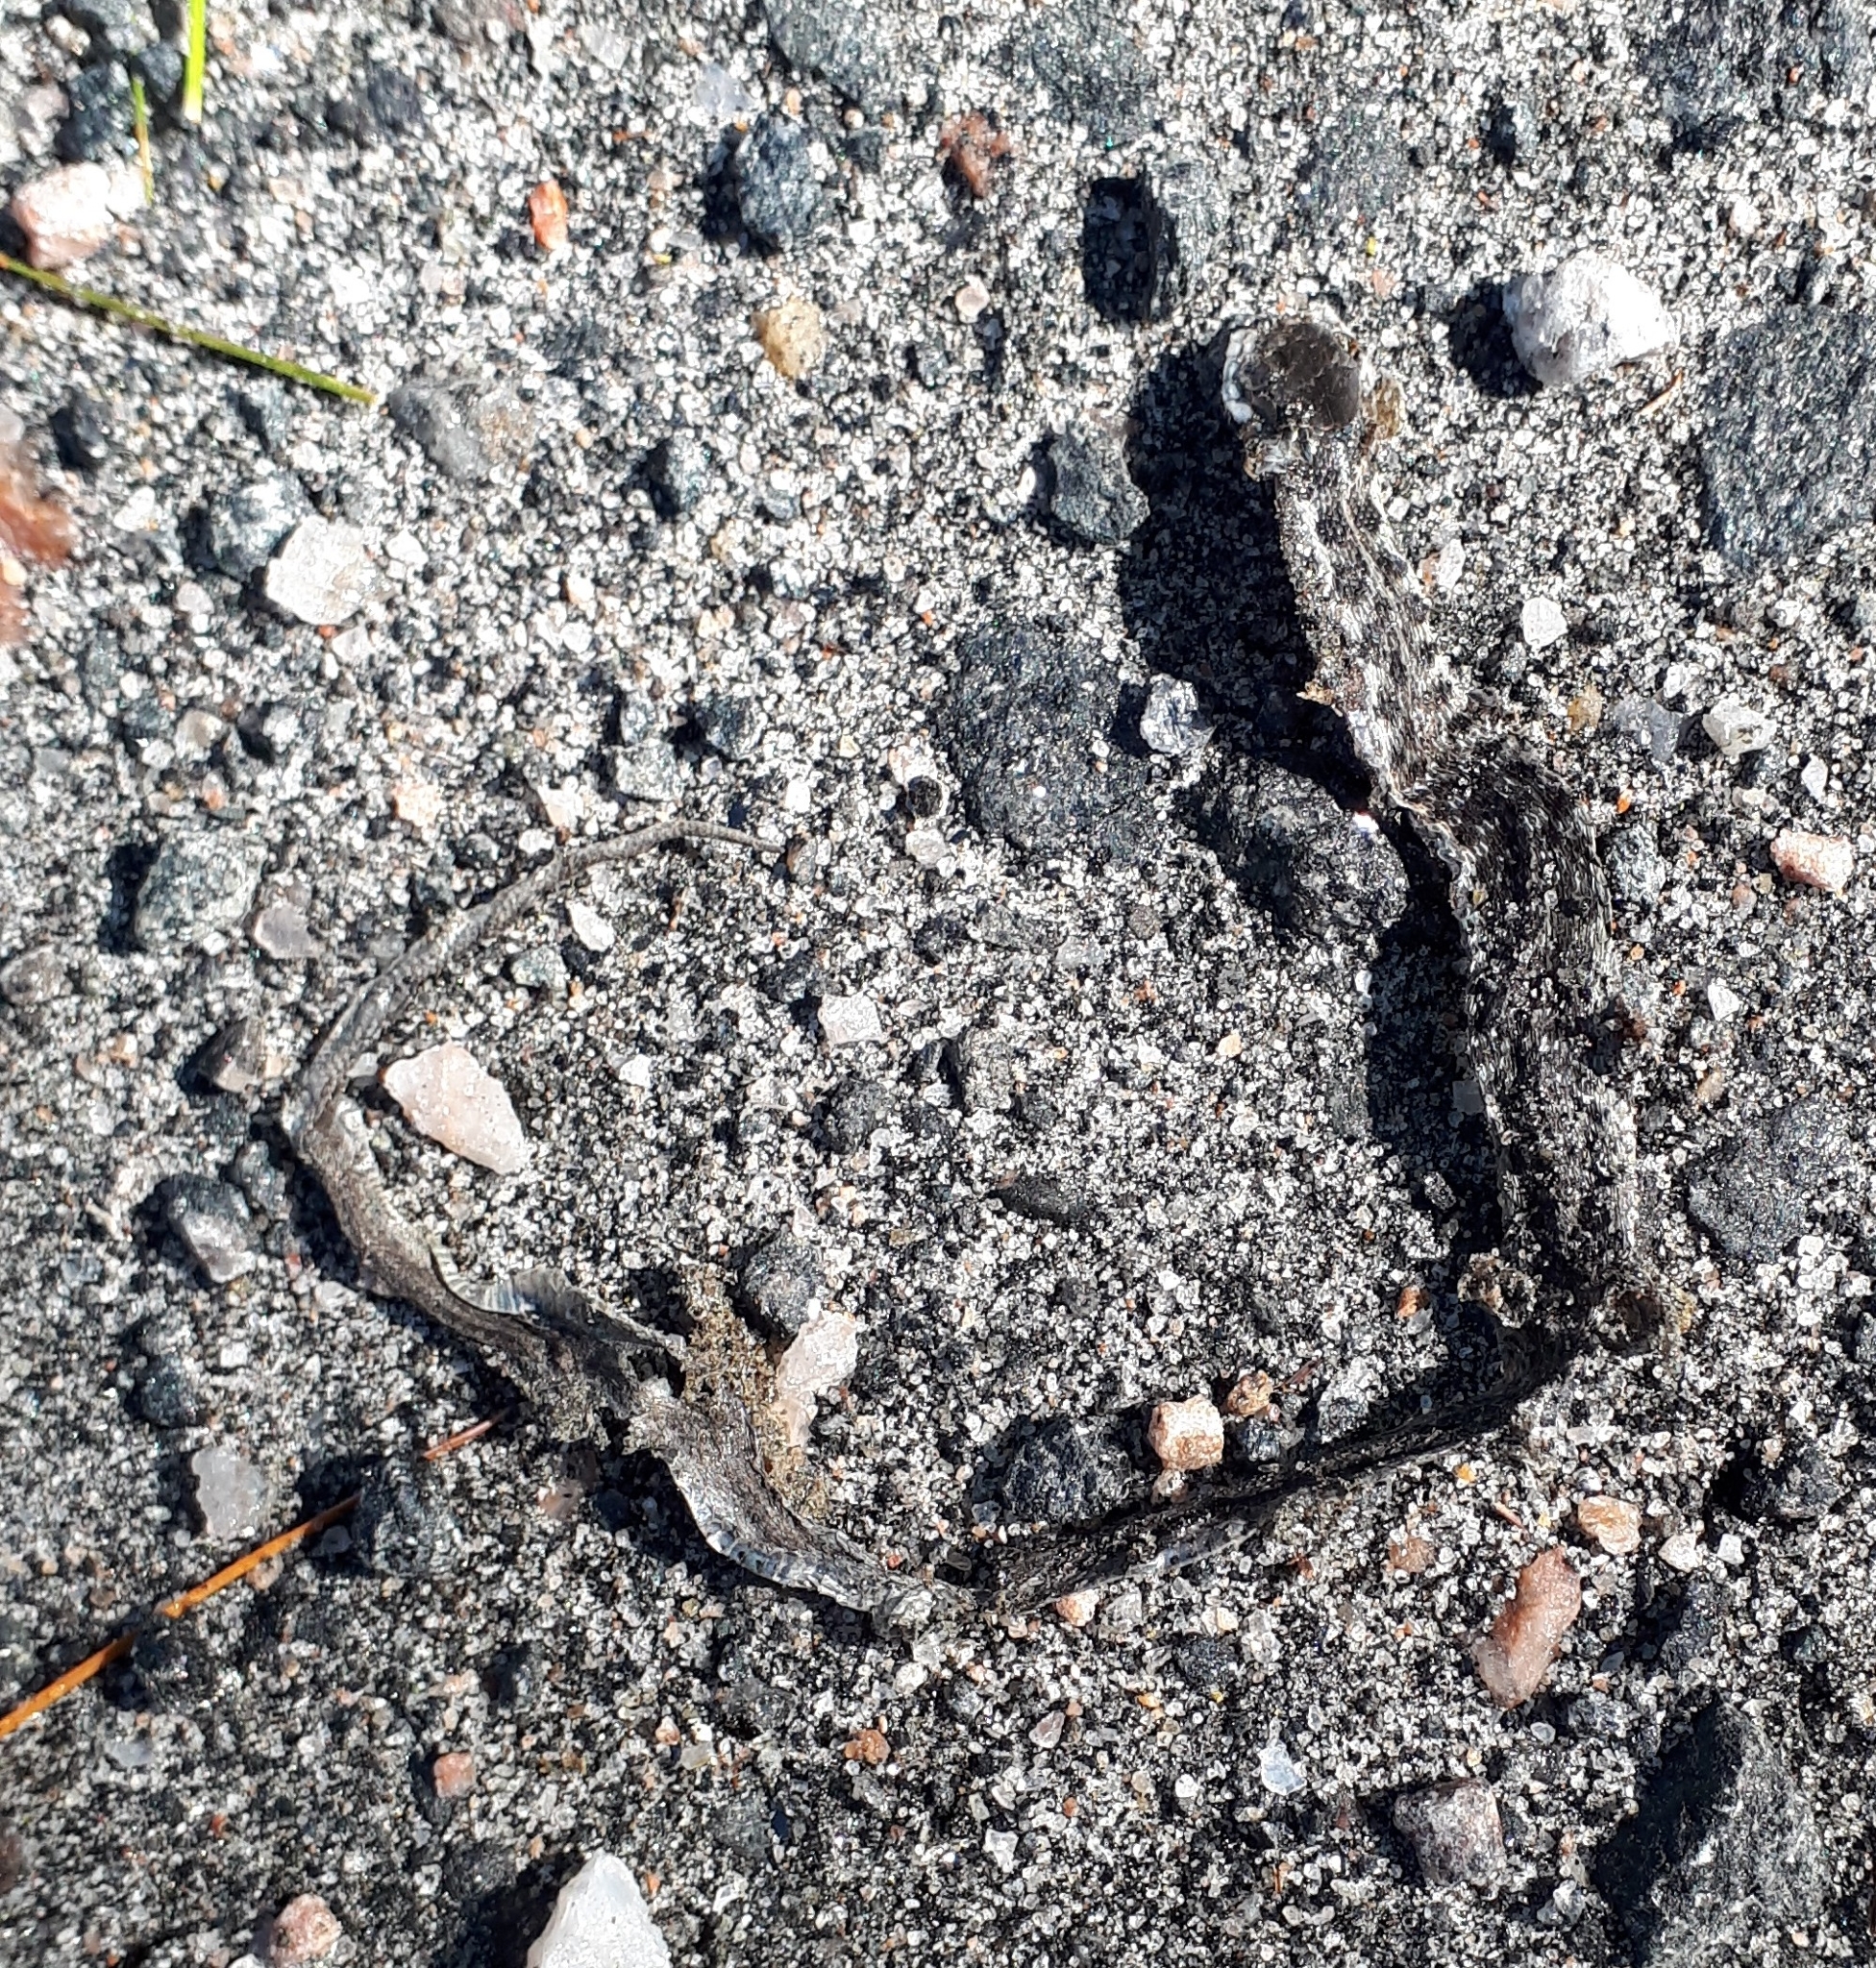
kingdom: Animalia
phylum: Chordata
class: Squamata
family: Colubridae
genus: Thamnophis
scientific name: Thamnophis sirtalis
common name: Common garter snake
